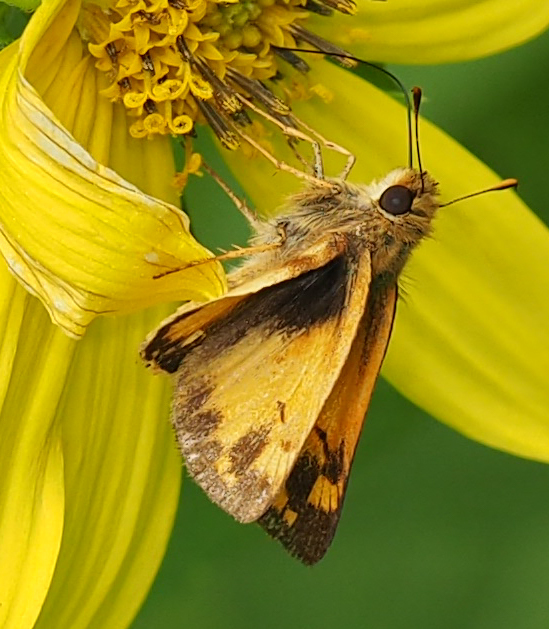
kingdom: Animalia
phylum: Arthropoda
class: Insecta
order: Lepidoptera
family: Hesperiidae
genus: Lon
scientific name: Lon zabulon
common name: Zabulon skipper
